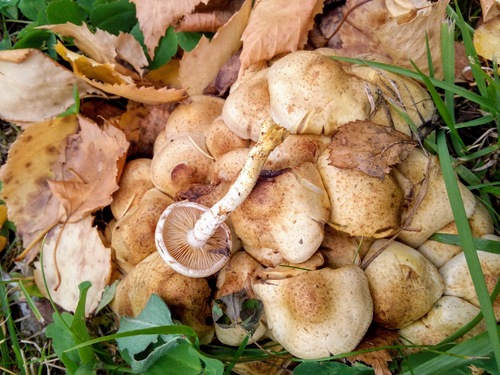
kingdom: Fungi
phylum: Basidiomycota
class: Agaricomycetes
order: Agaricales
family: Strophariaceae
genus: Pholiota
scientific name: Pholiota kodiakensis
